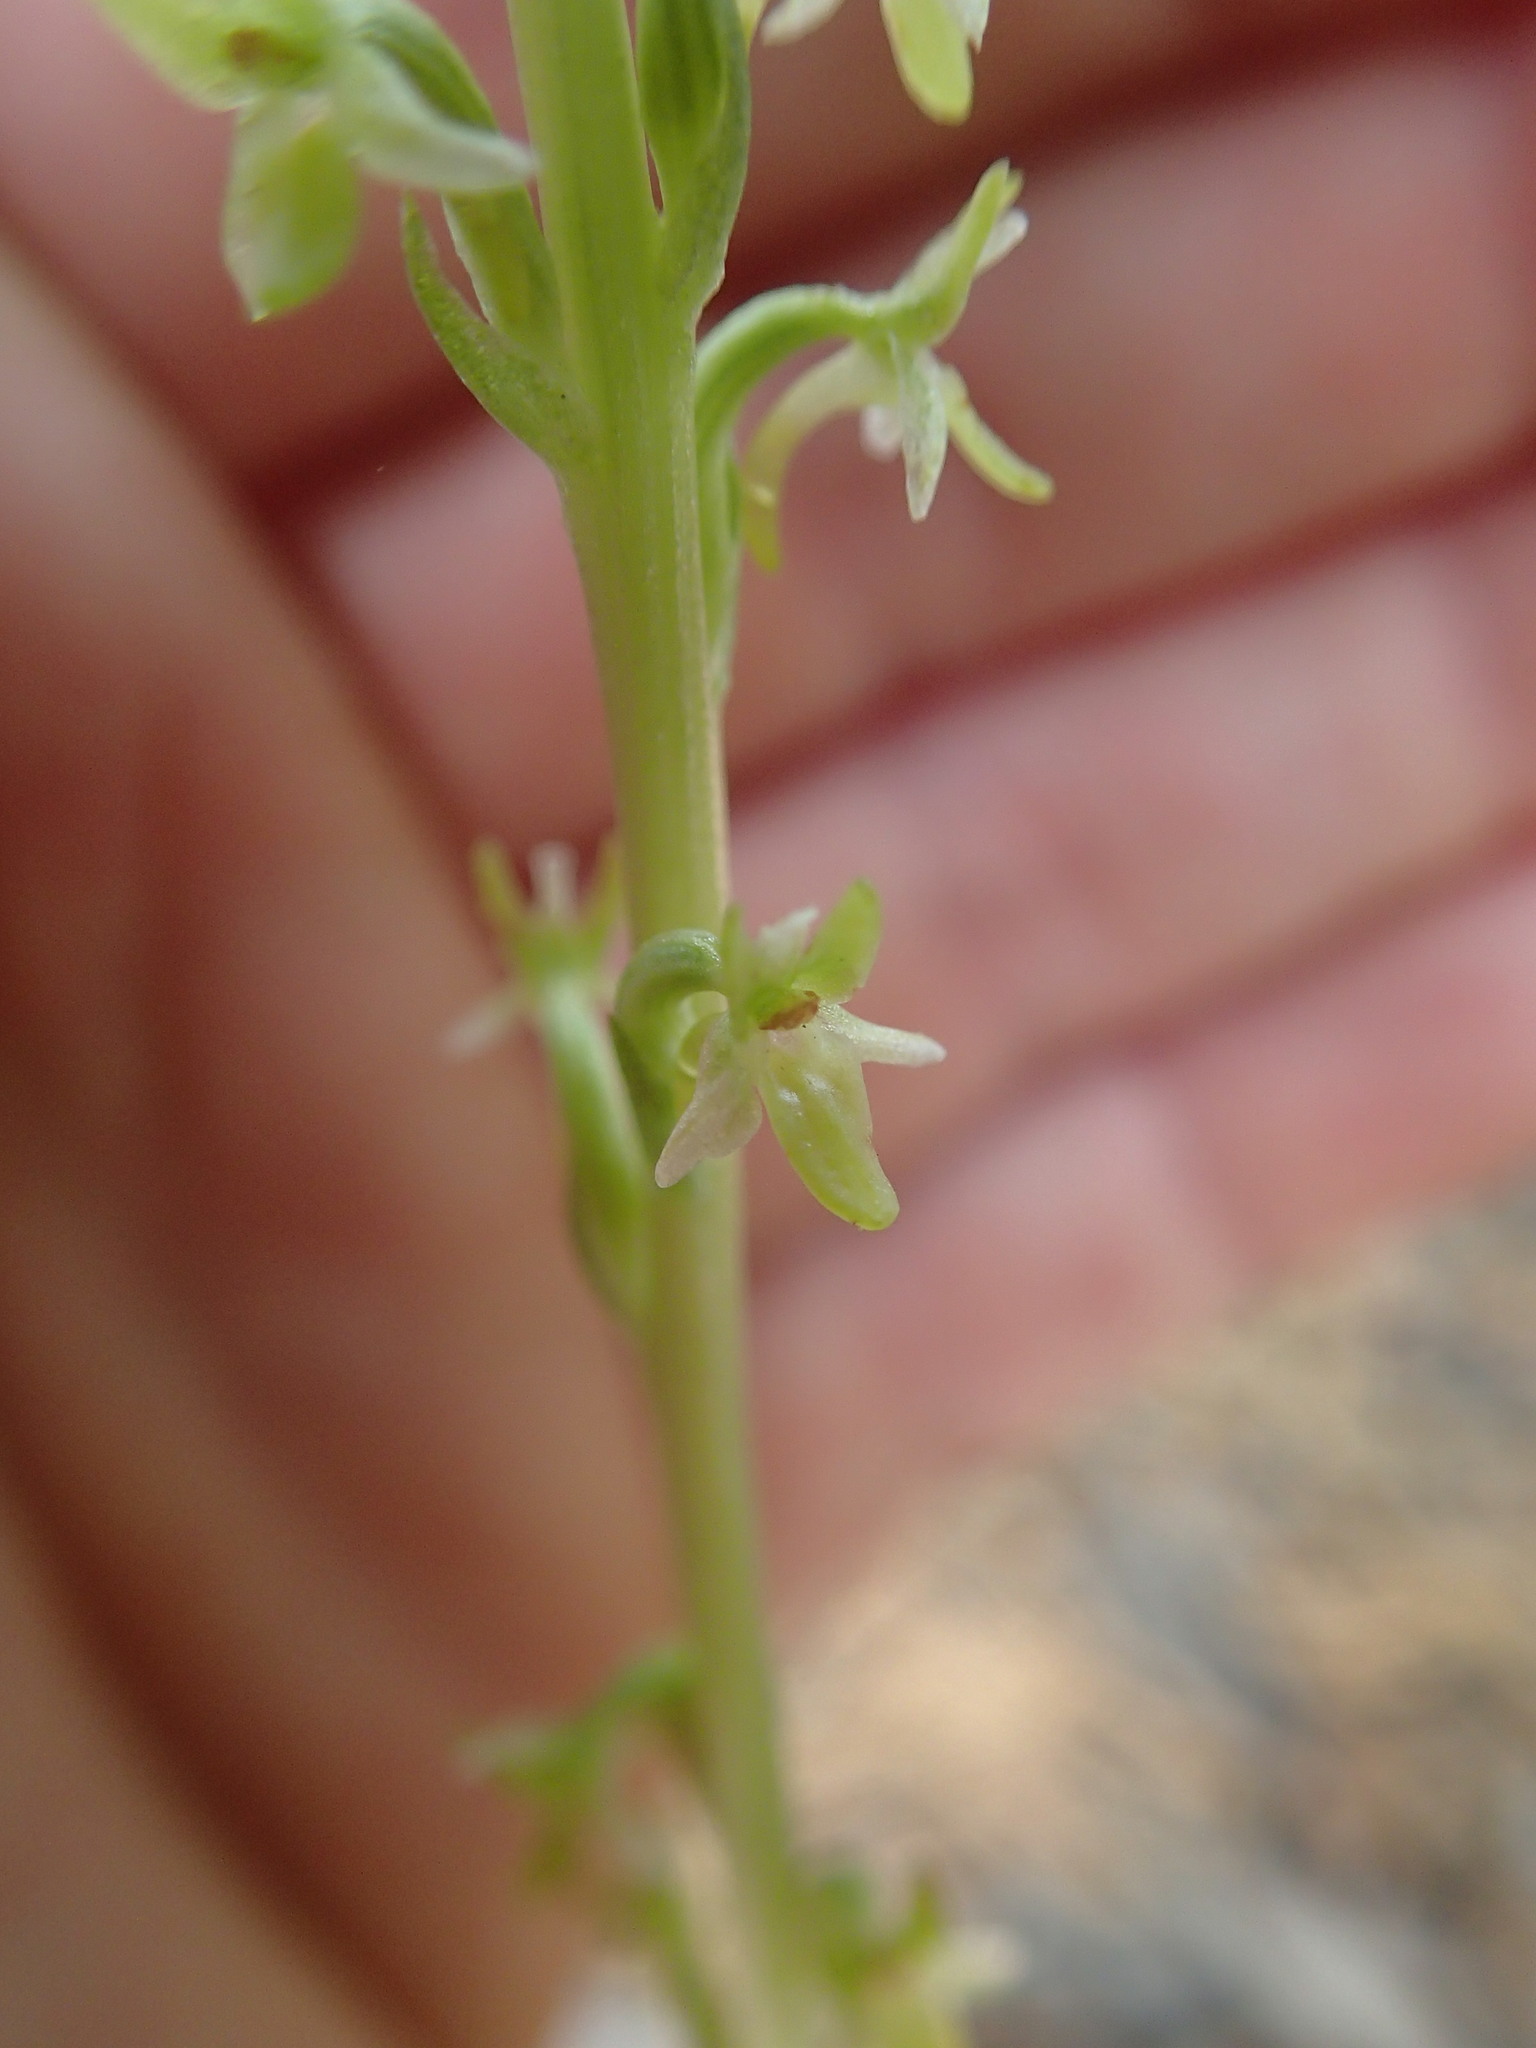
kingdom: Plantae
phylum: Tracheophyta
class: Liliopsida
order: Asparagales
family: Orchidaceae
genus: Platanthera
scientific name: Platanthera unalascensis
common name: Alaska bog orchid
